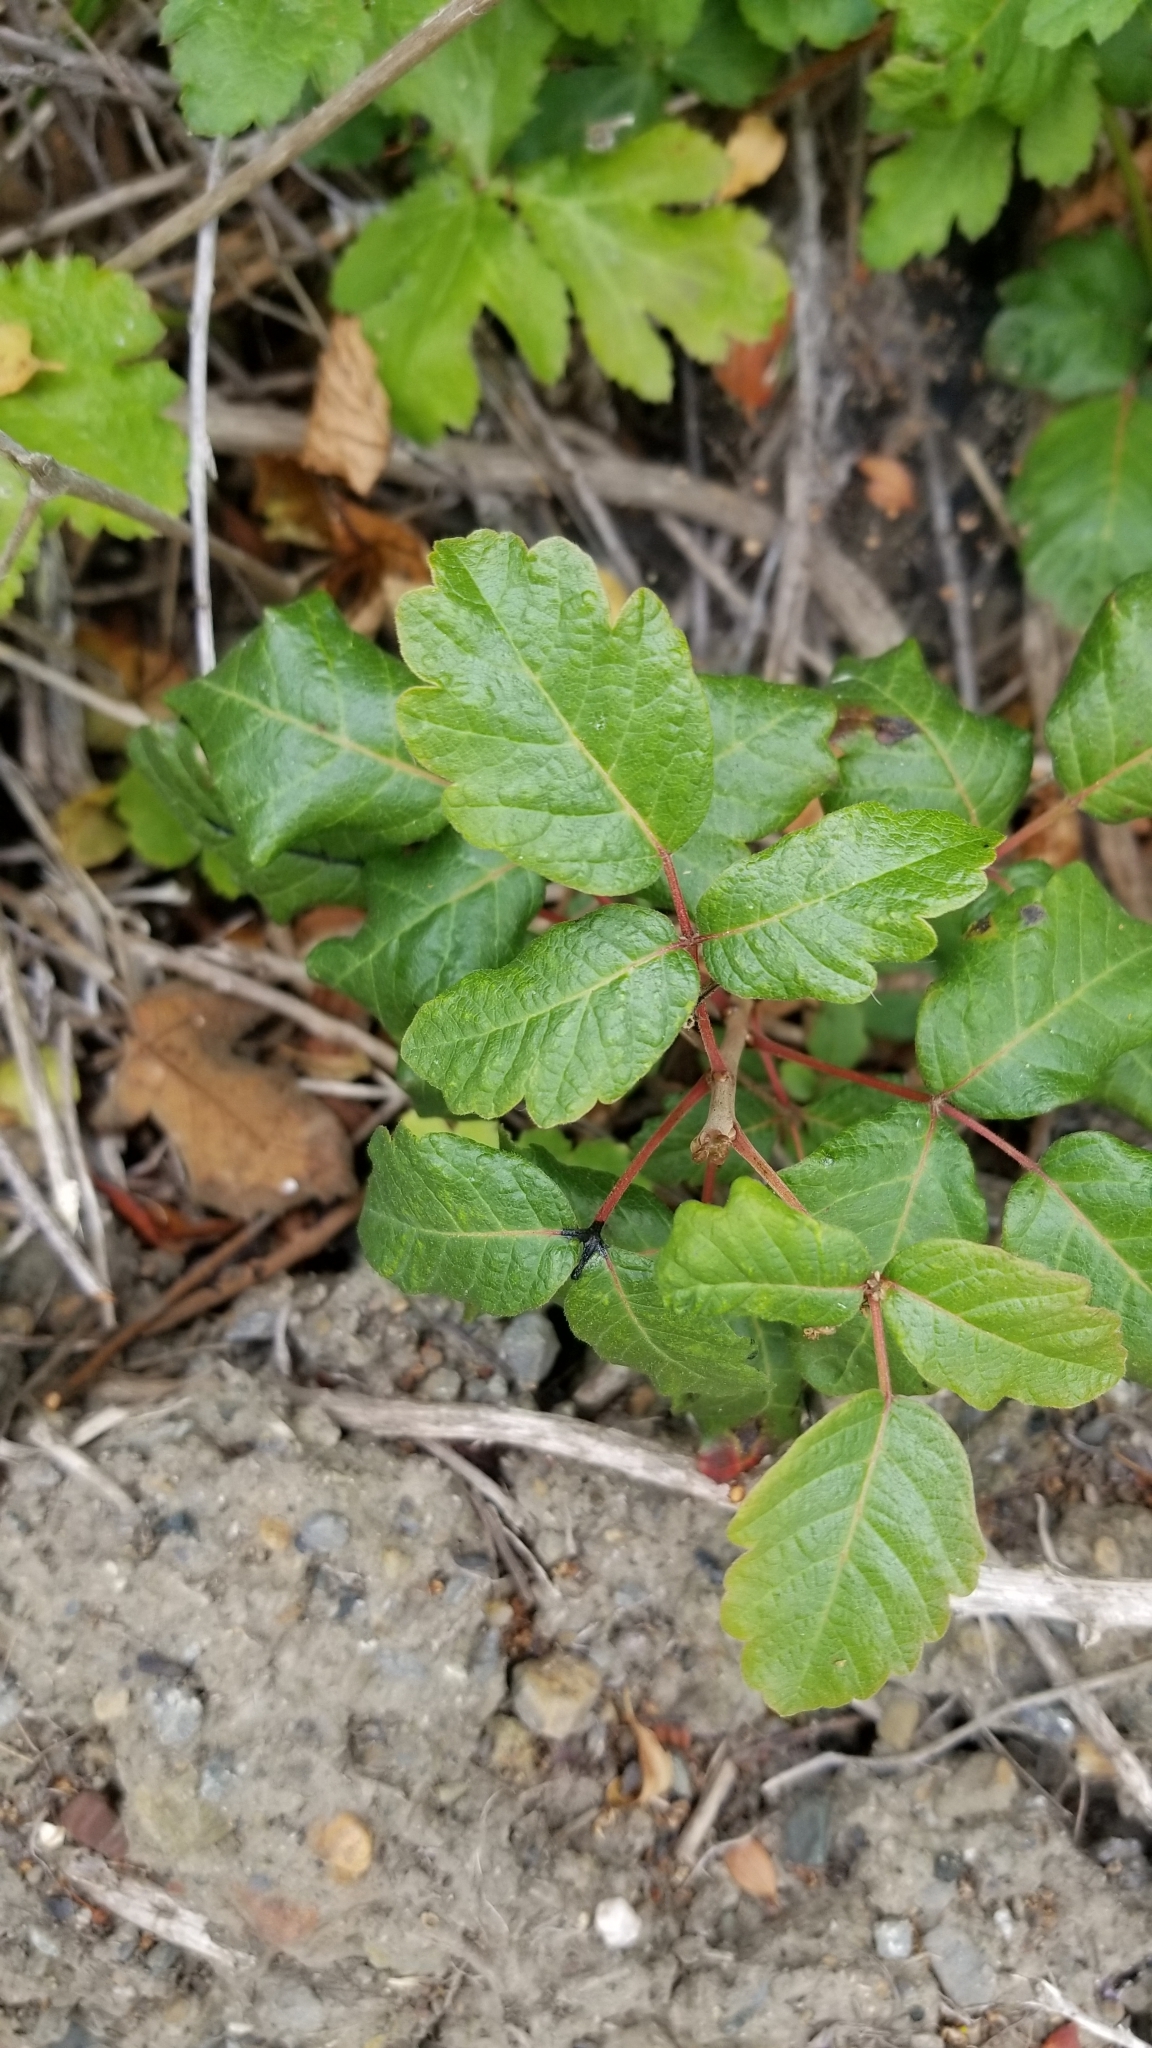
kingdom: Plantae
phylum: Tracheophyta
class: Magnoliopsida
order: Sapindales
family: Anacardiaceae
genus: Toxicodendron
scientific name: Toxicodendron diversilobum
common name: Pacific poison-oak
